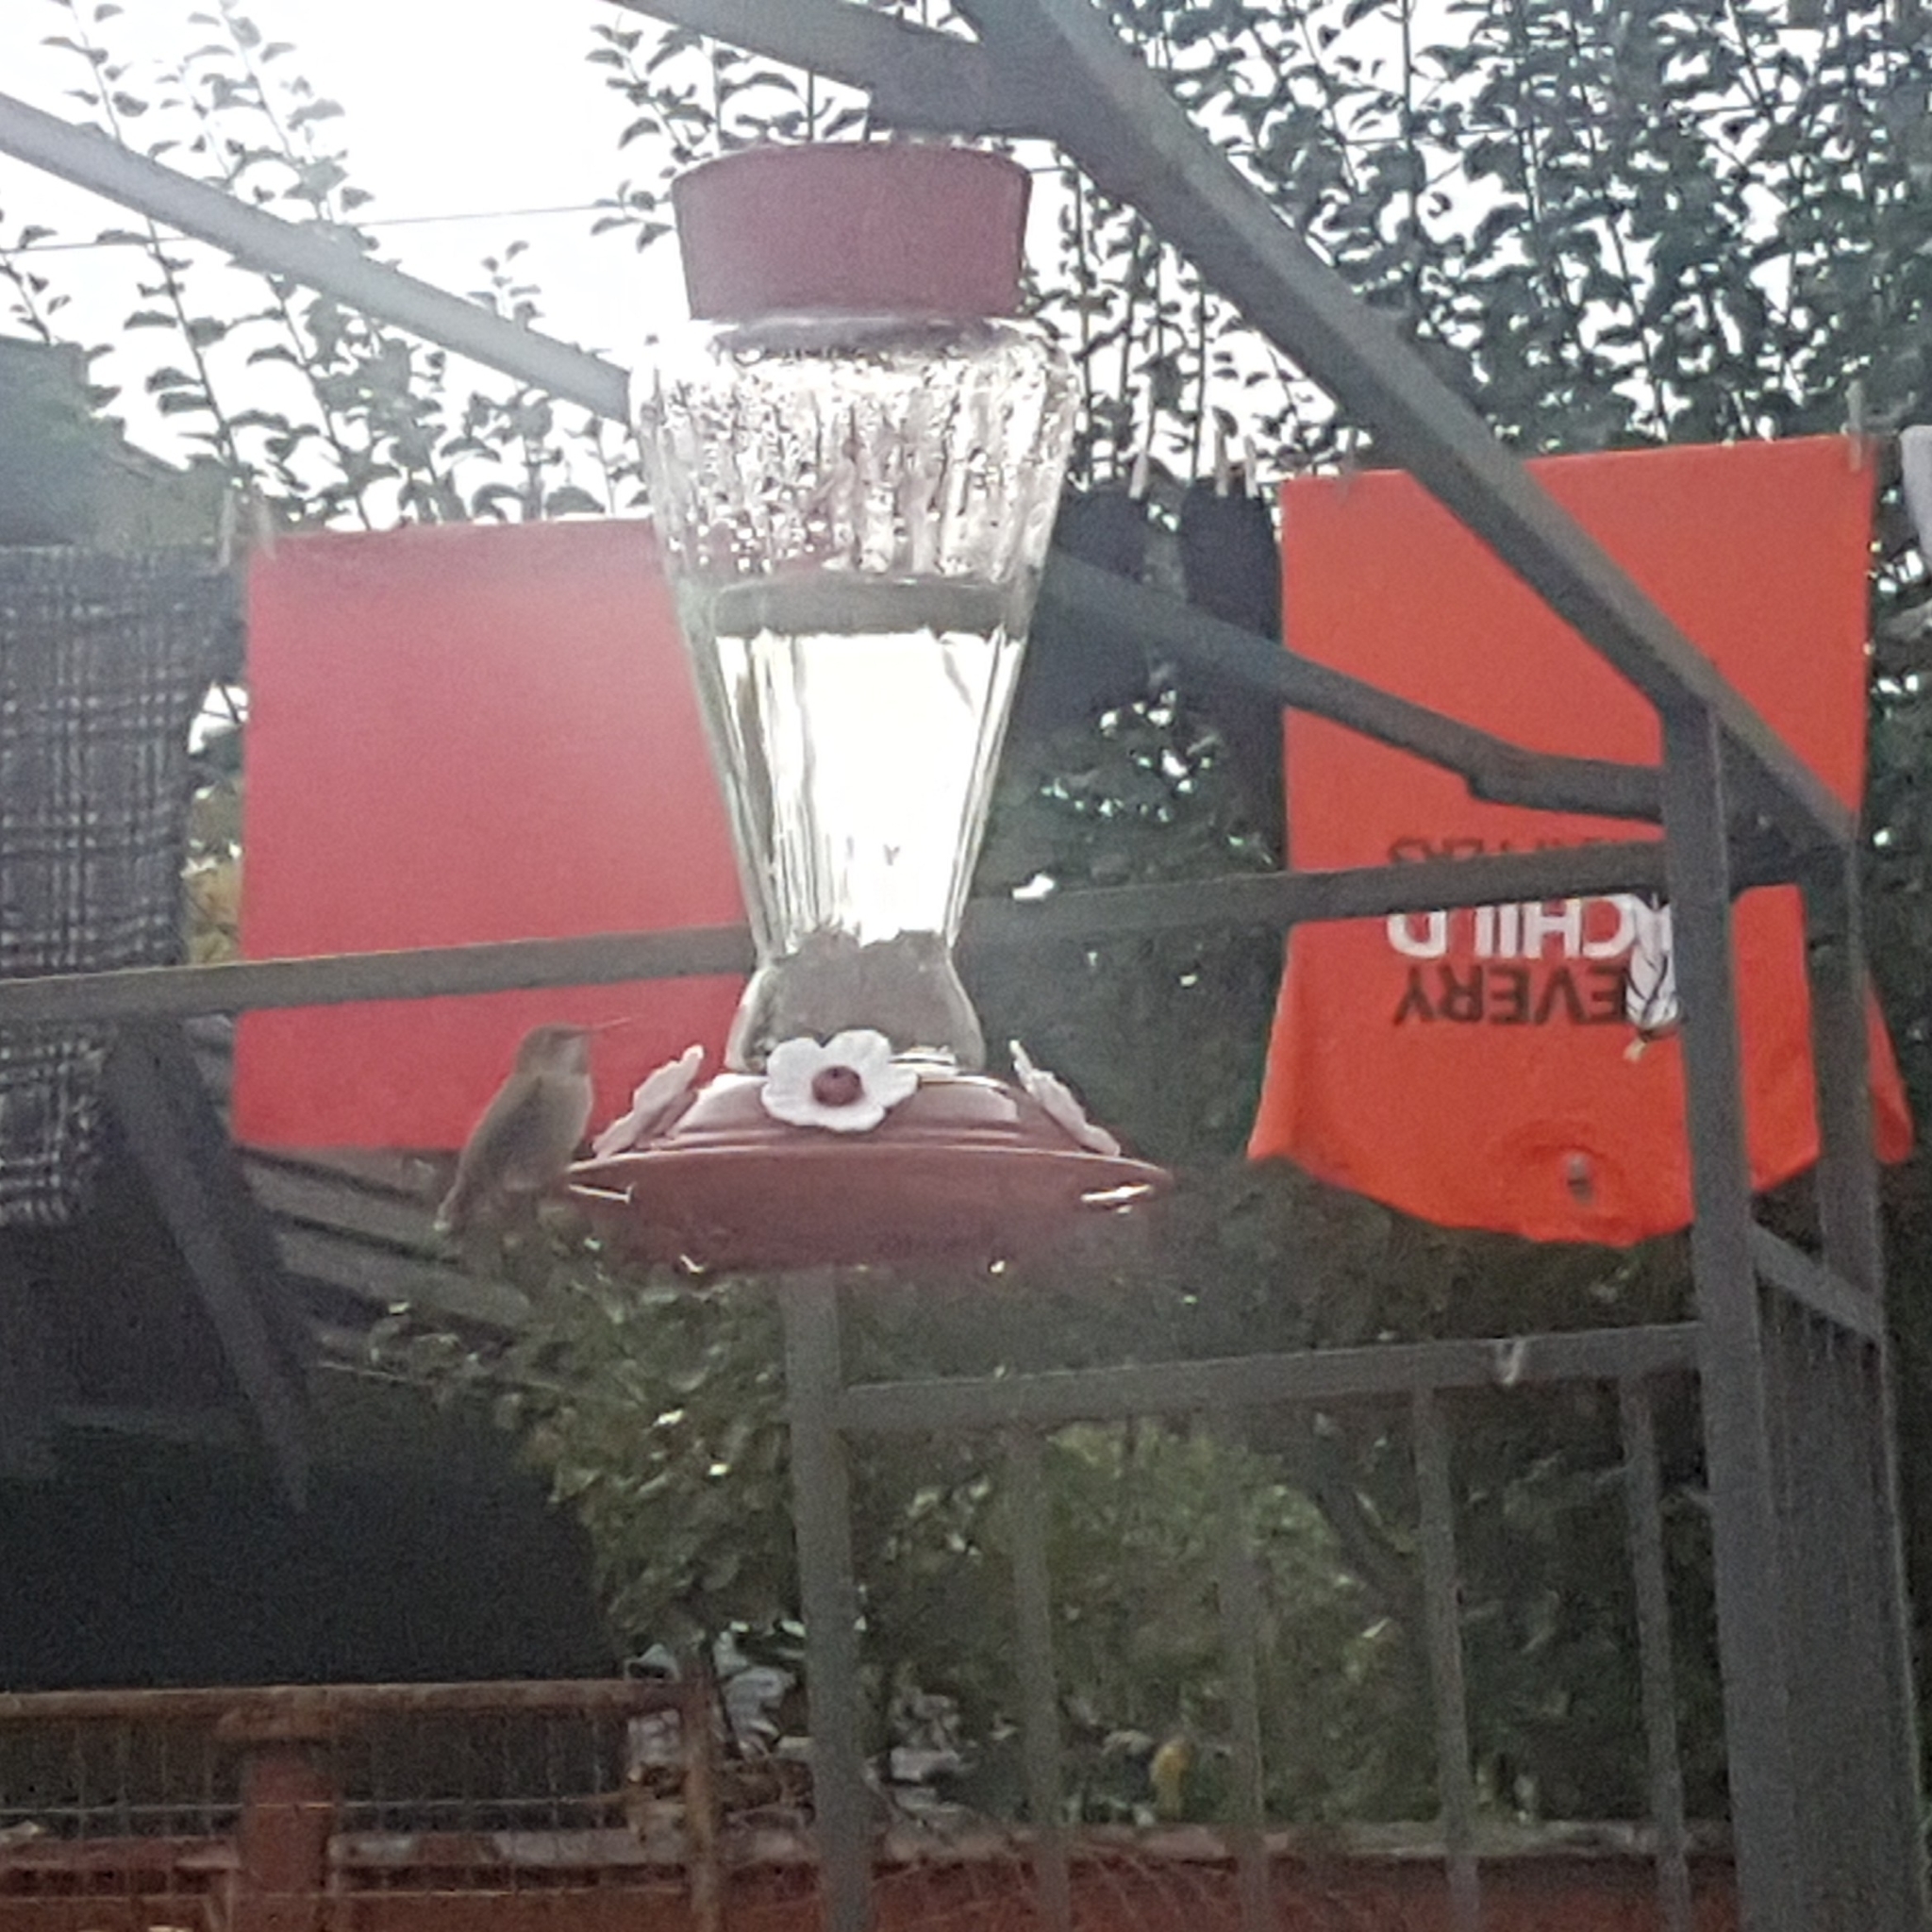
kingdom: Animalia
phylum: Chordata
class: Aves
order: Apodiformes
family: Trochilidae
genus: Calypte
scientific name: Calypte anna
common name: Anna's hummingbird
